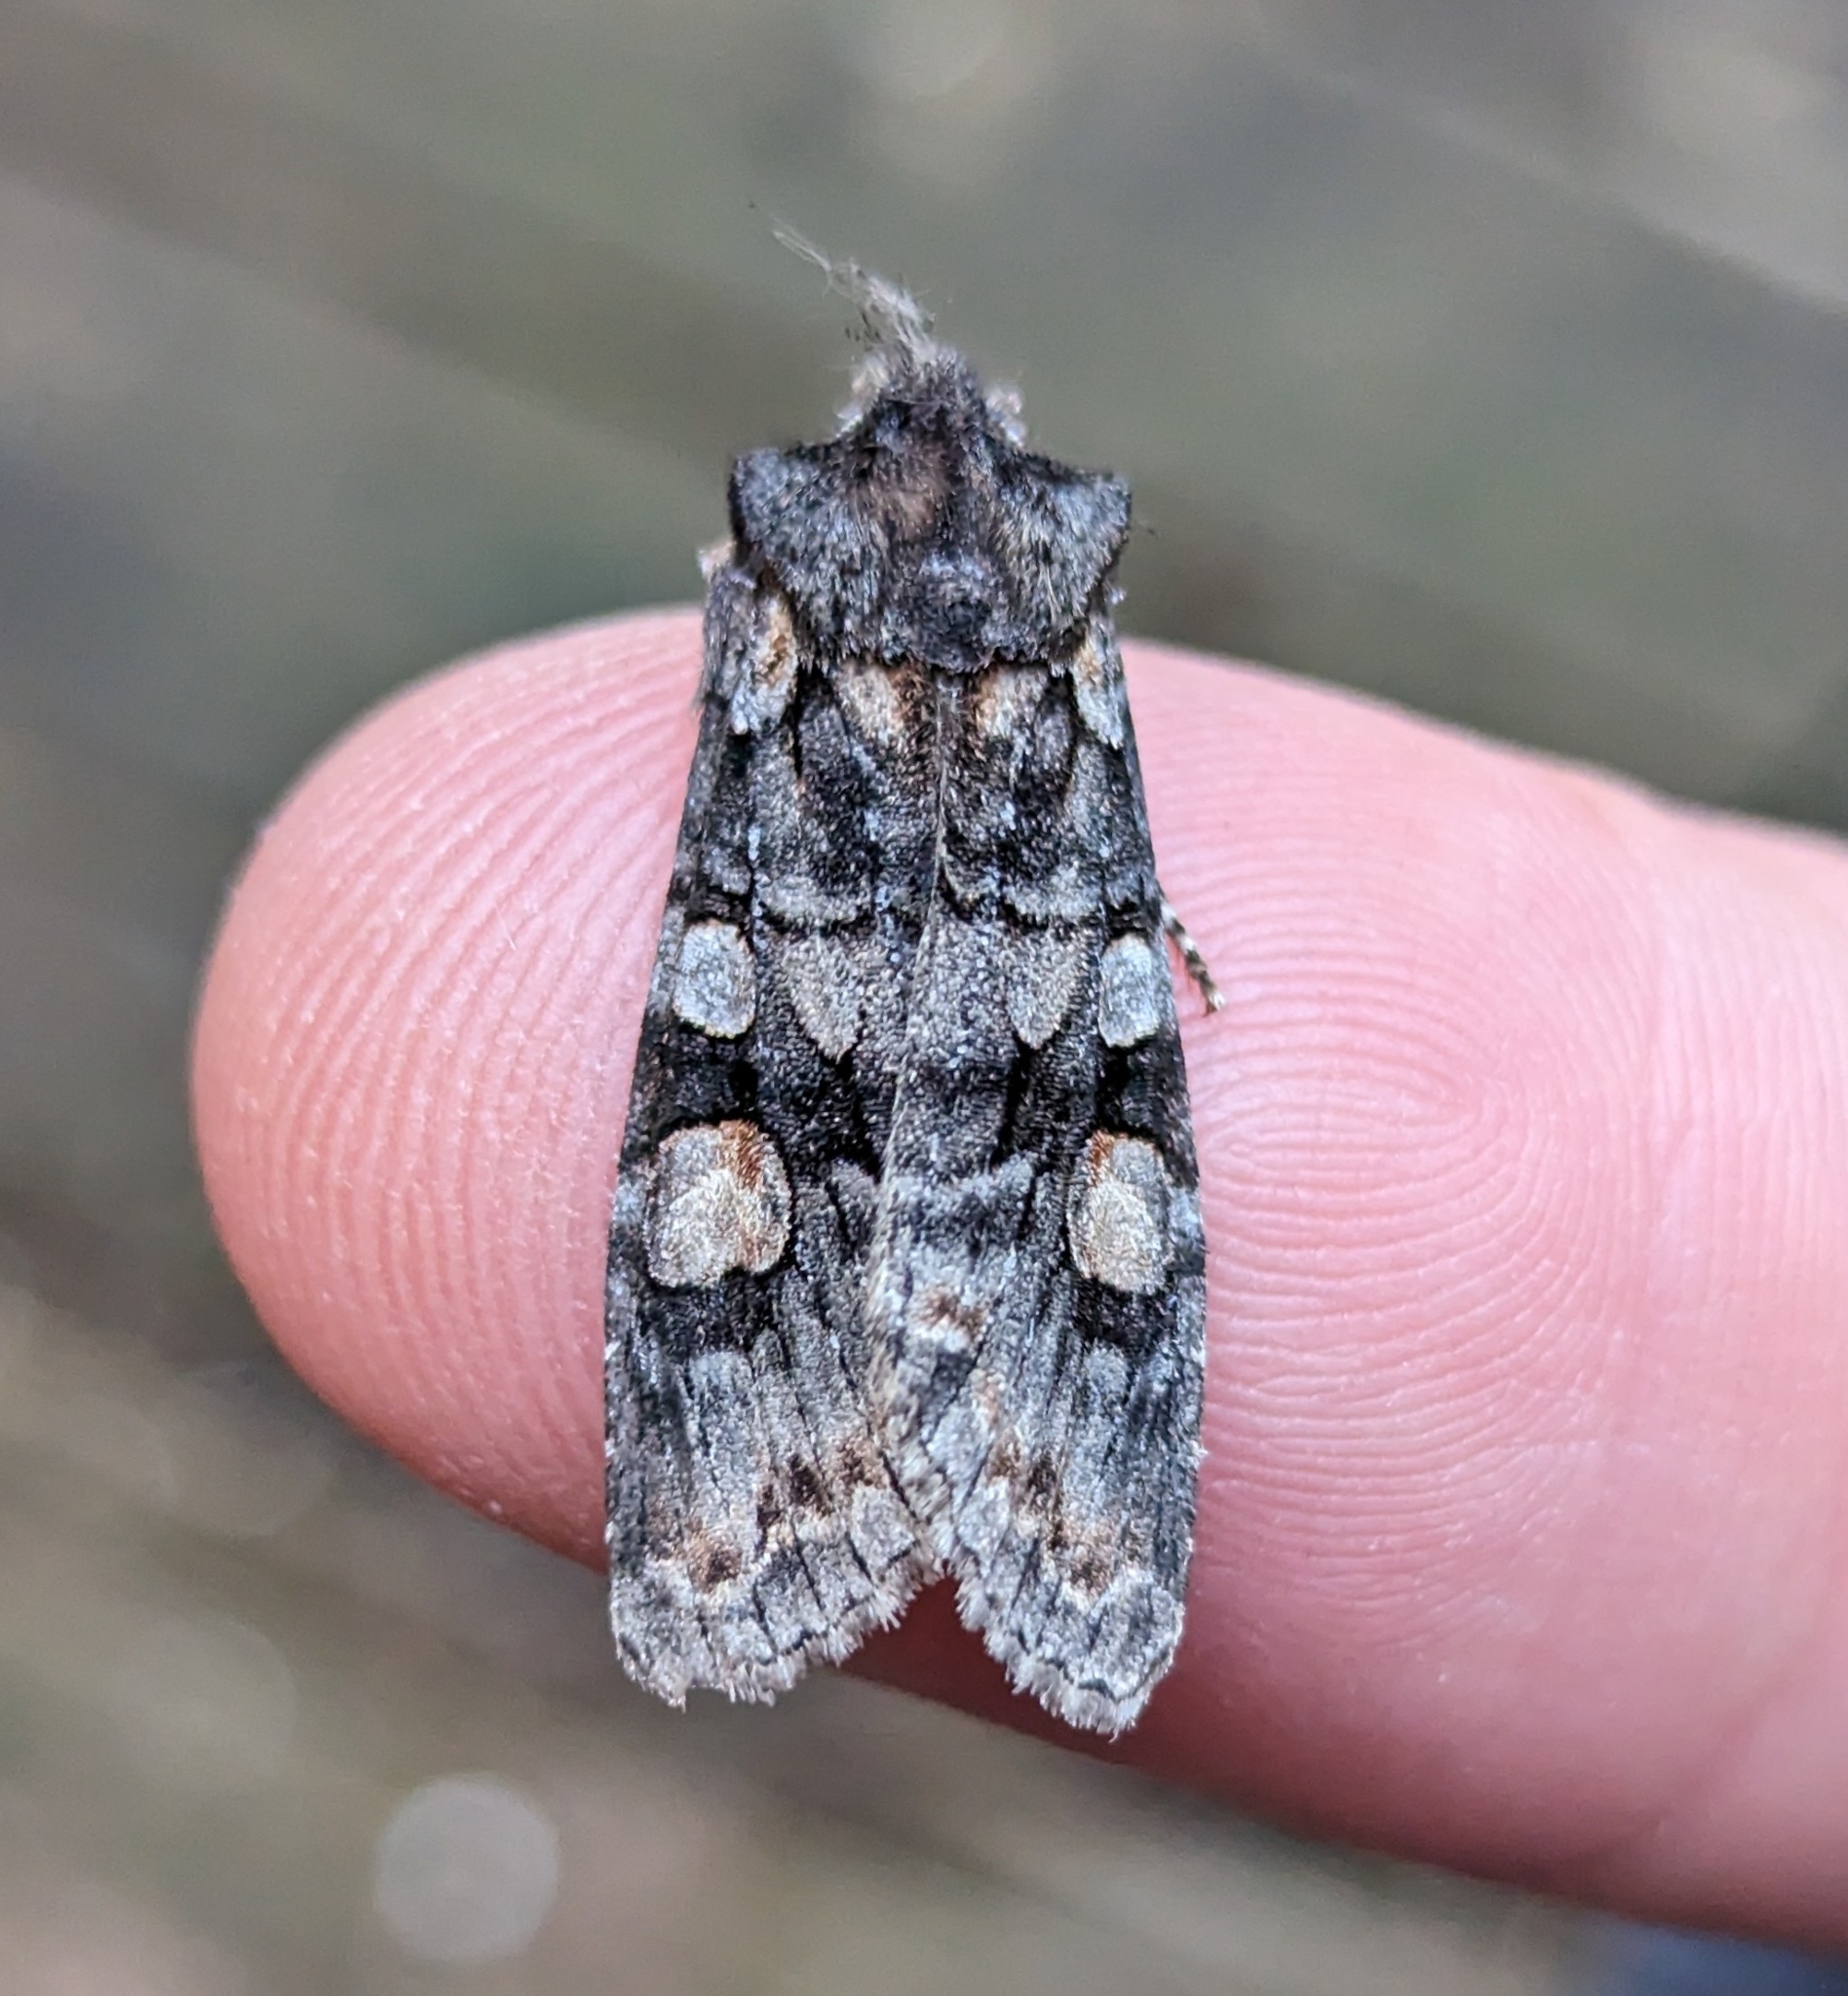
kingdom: Animalia
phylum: Arthropoda
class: Insecta
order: Lepidoptera
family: Noctuidae
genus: Lithophane
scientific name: Lithophane dilatocula
